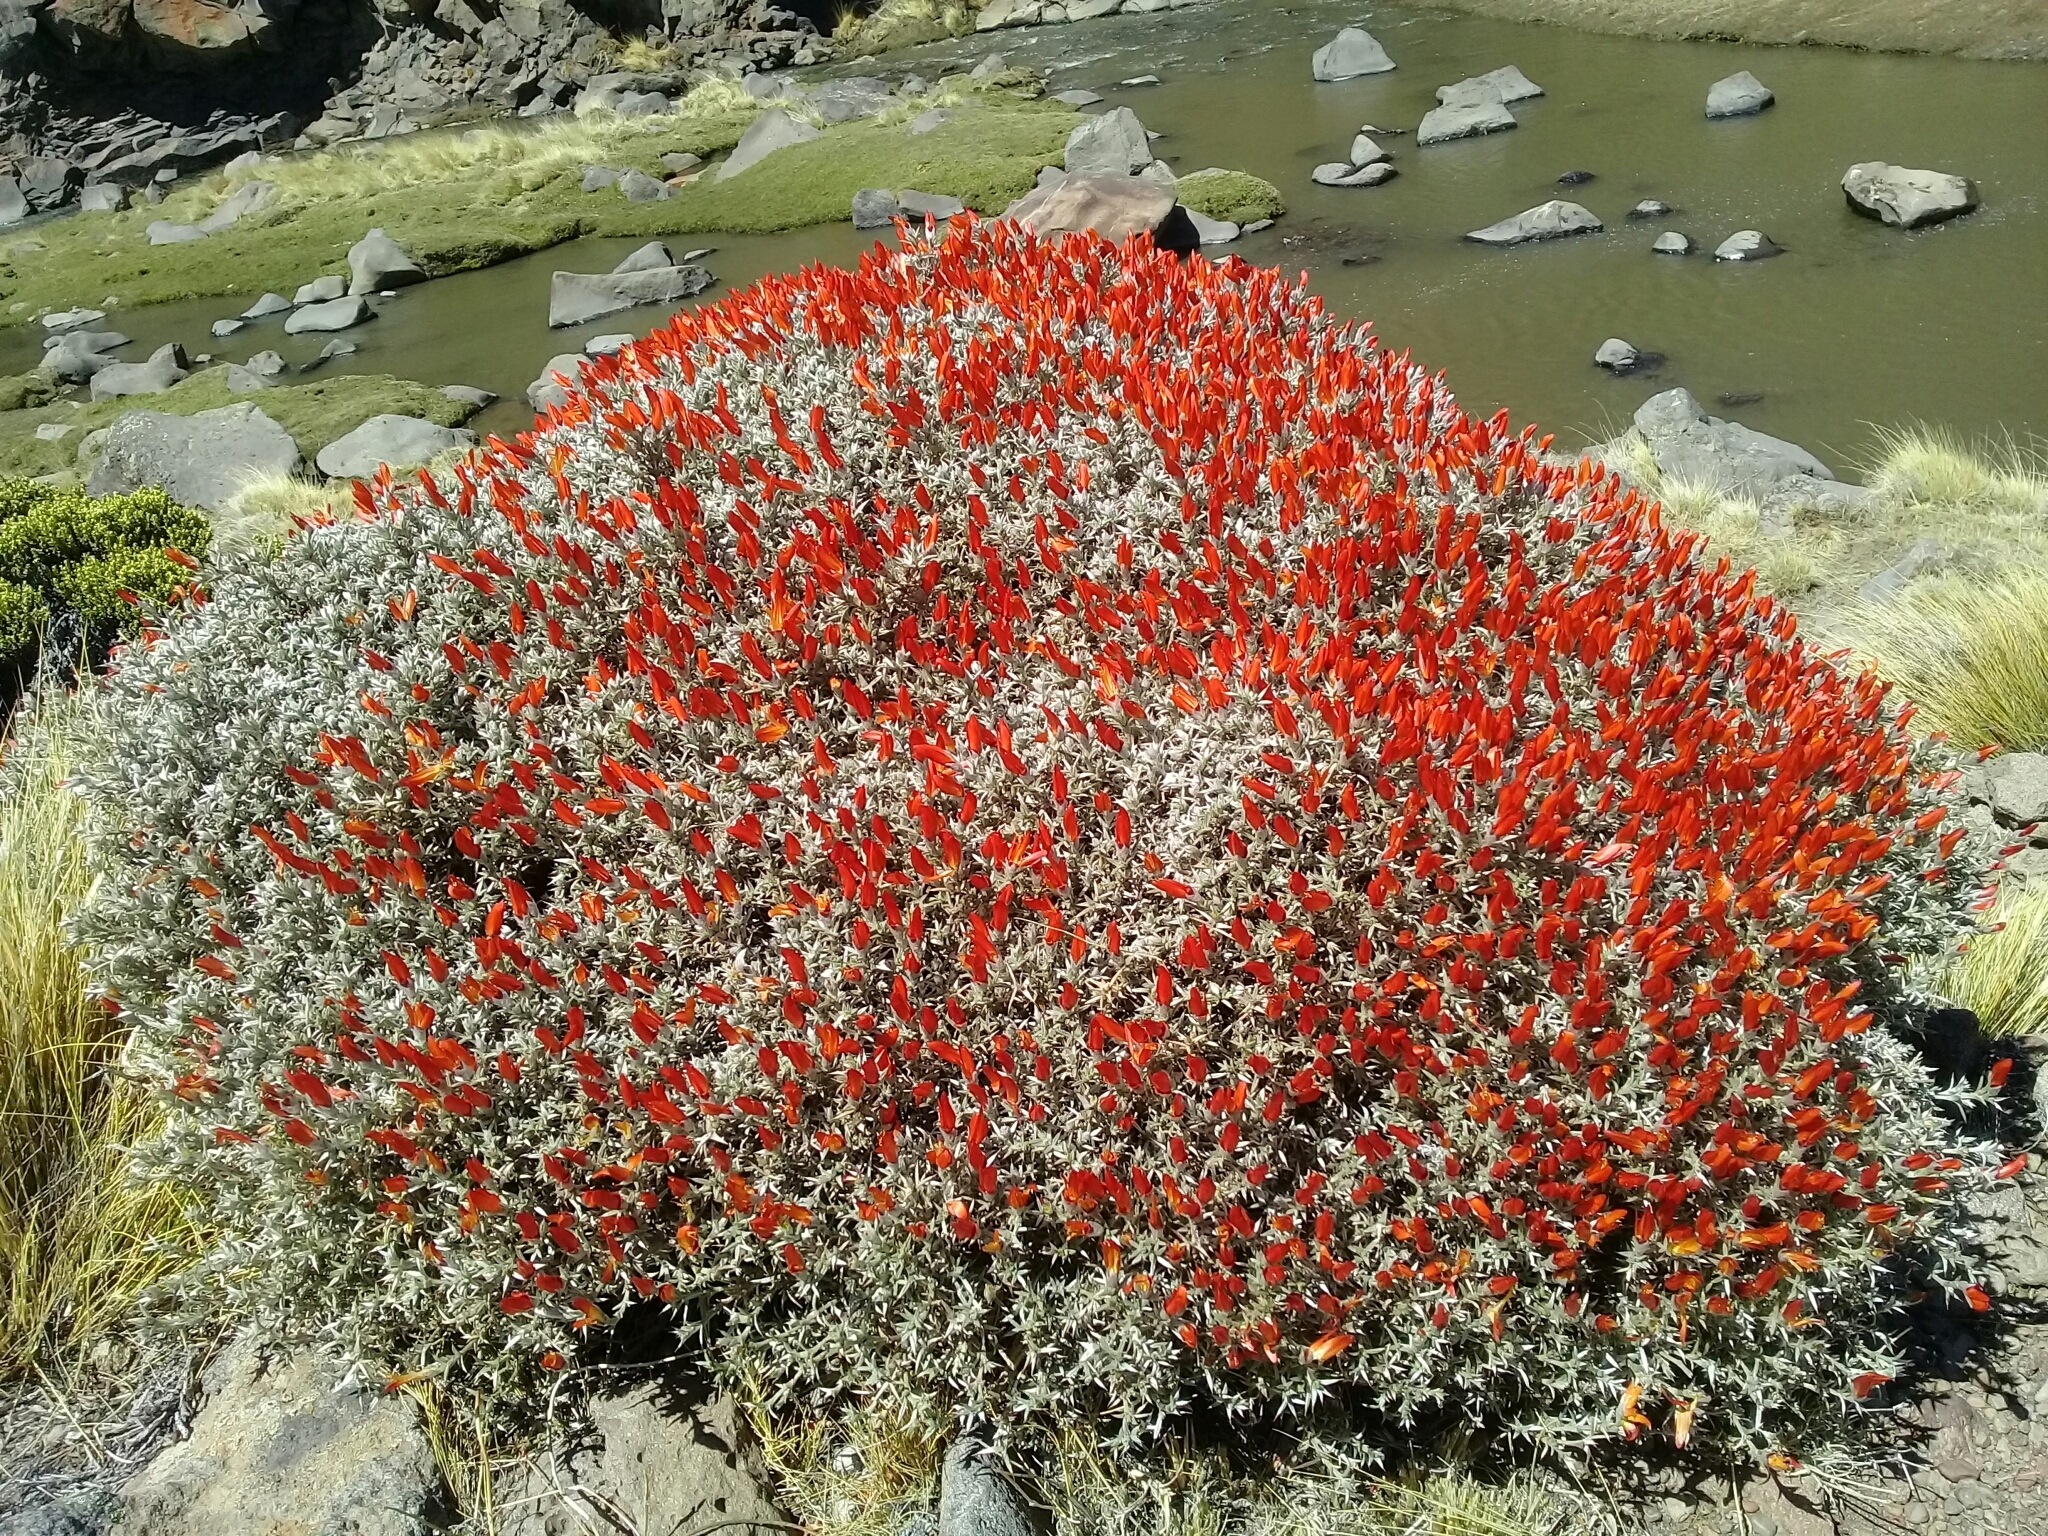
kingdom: Plantae
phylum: Tracheophyta
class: Magnoliopsida
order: Fabales
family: Fabaceae
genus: Anarthrophyllum
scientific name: Anarthrophyllum desideratum
